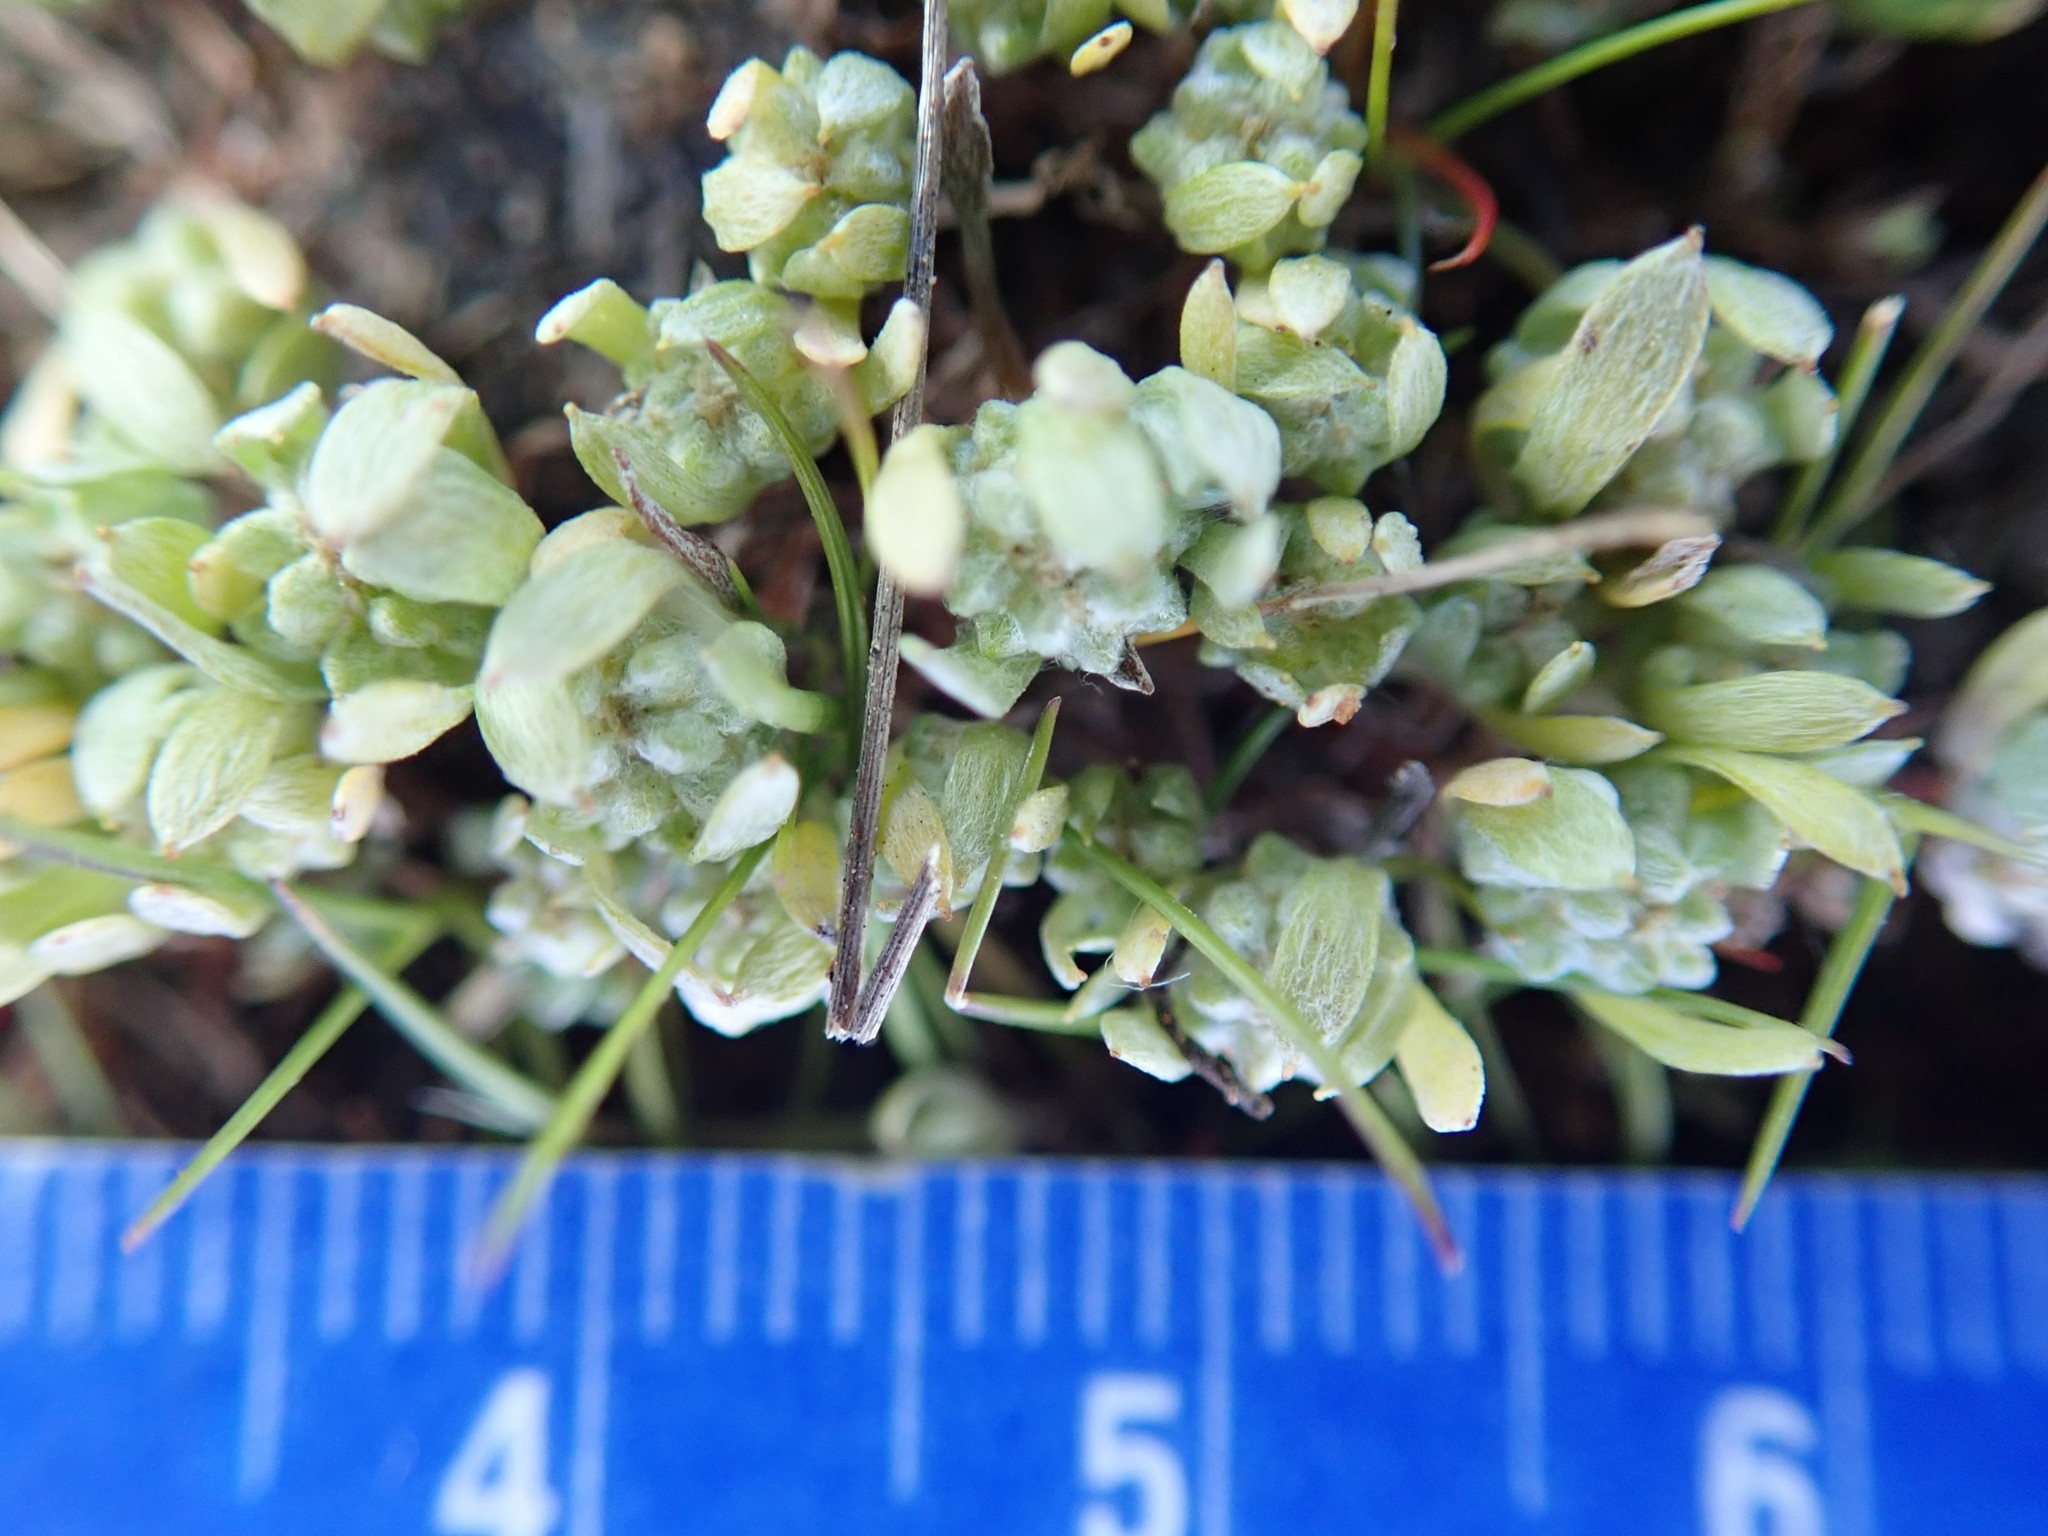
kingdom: Plantae
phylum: Tracheophyta
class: Magnoliopsida
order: Asterales
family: Asteraceae
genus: Psilocarphus
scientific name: Psilocarphus tenellus
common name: Slender woolly-marbles
